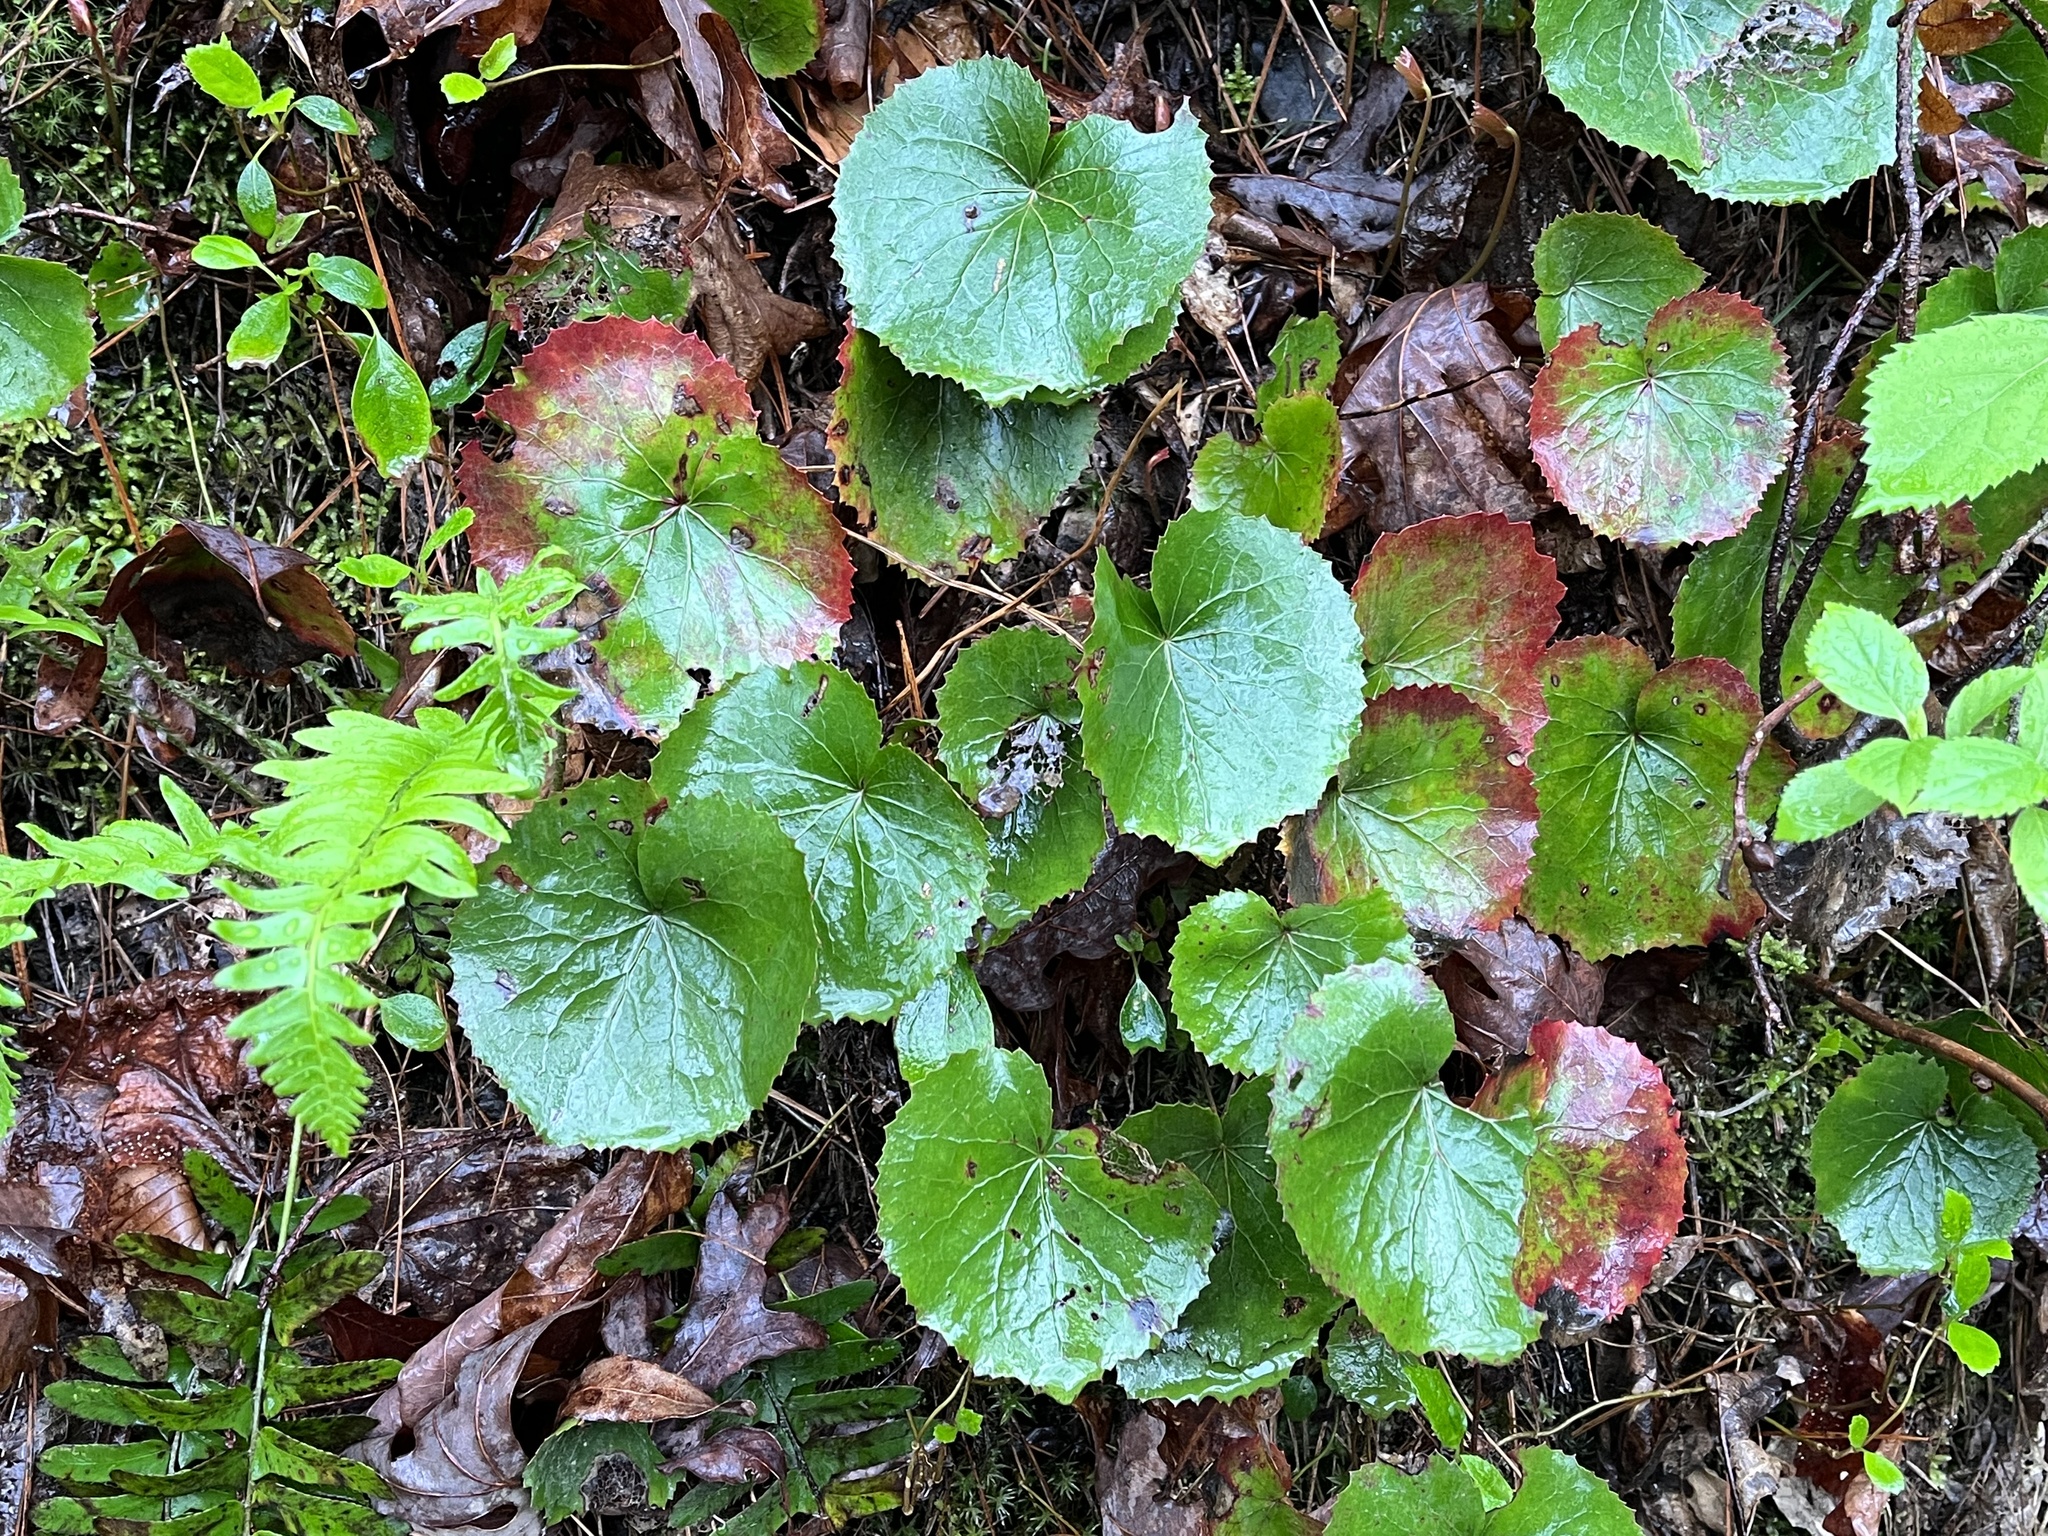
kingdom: Plantae
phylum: Tracheophyta
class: Magnoliopsida
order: Ericales
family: Diapensiaceae
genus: Galax
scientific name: Galax urceolata
